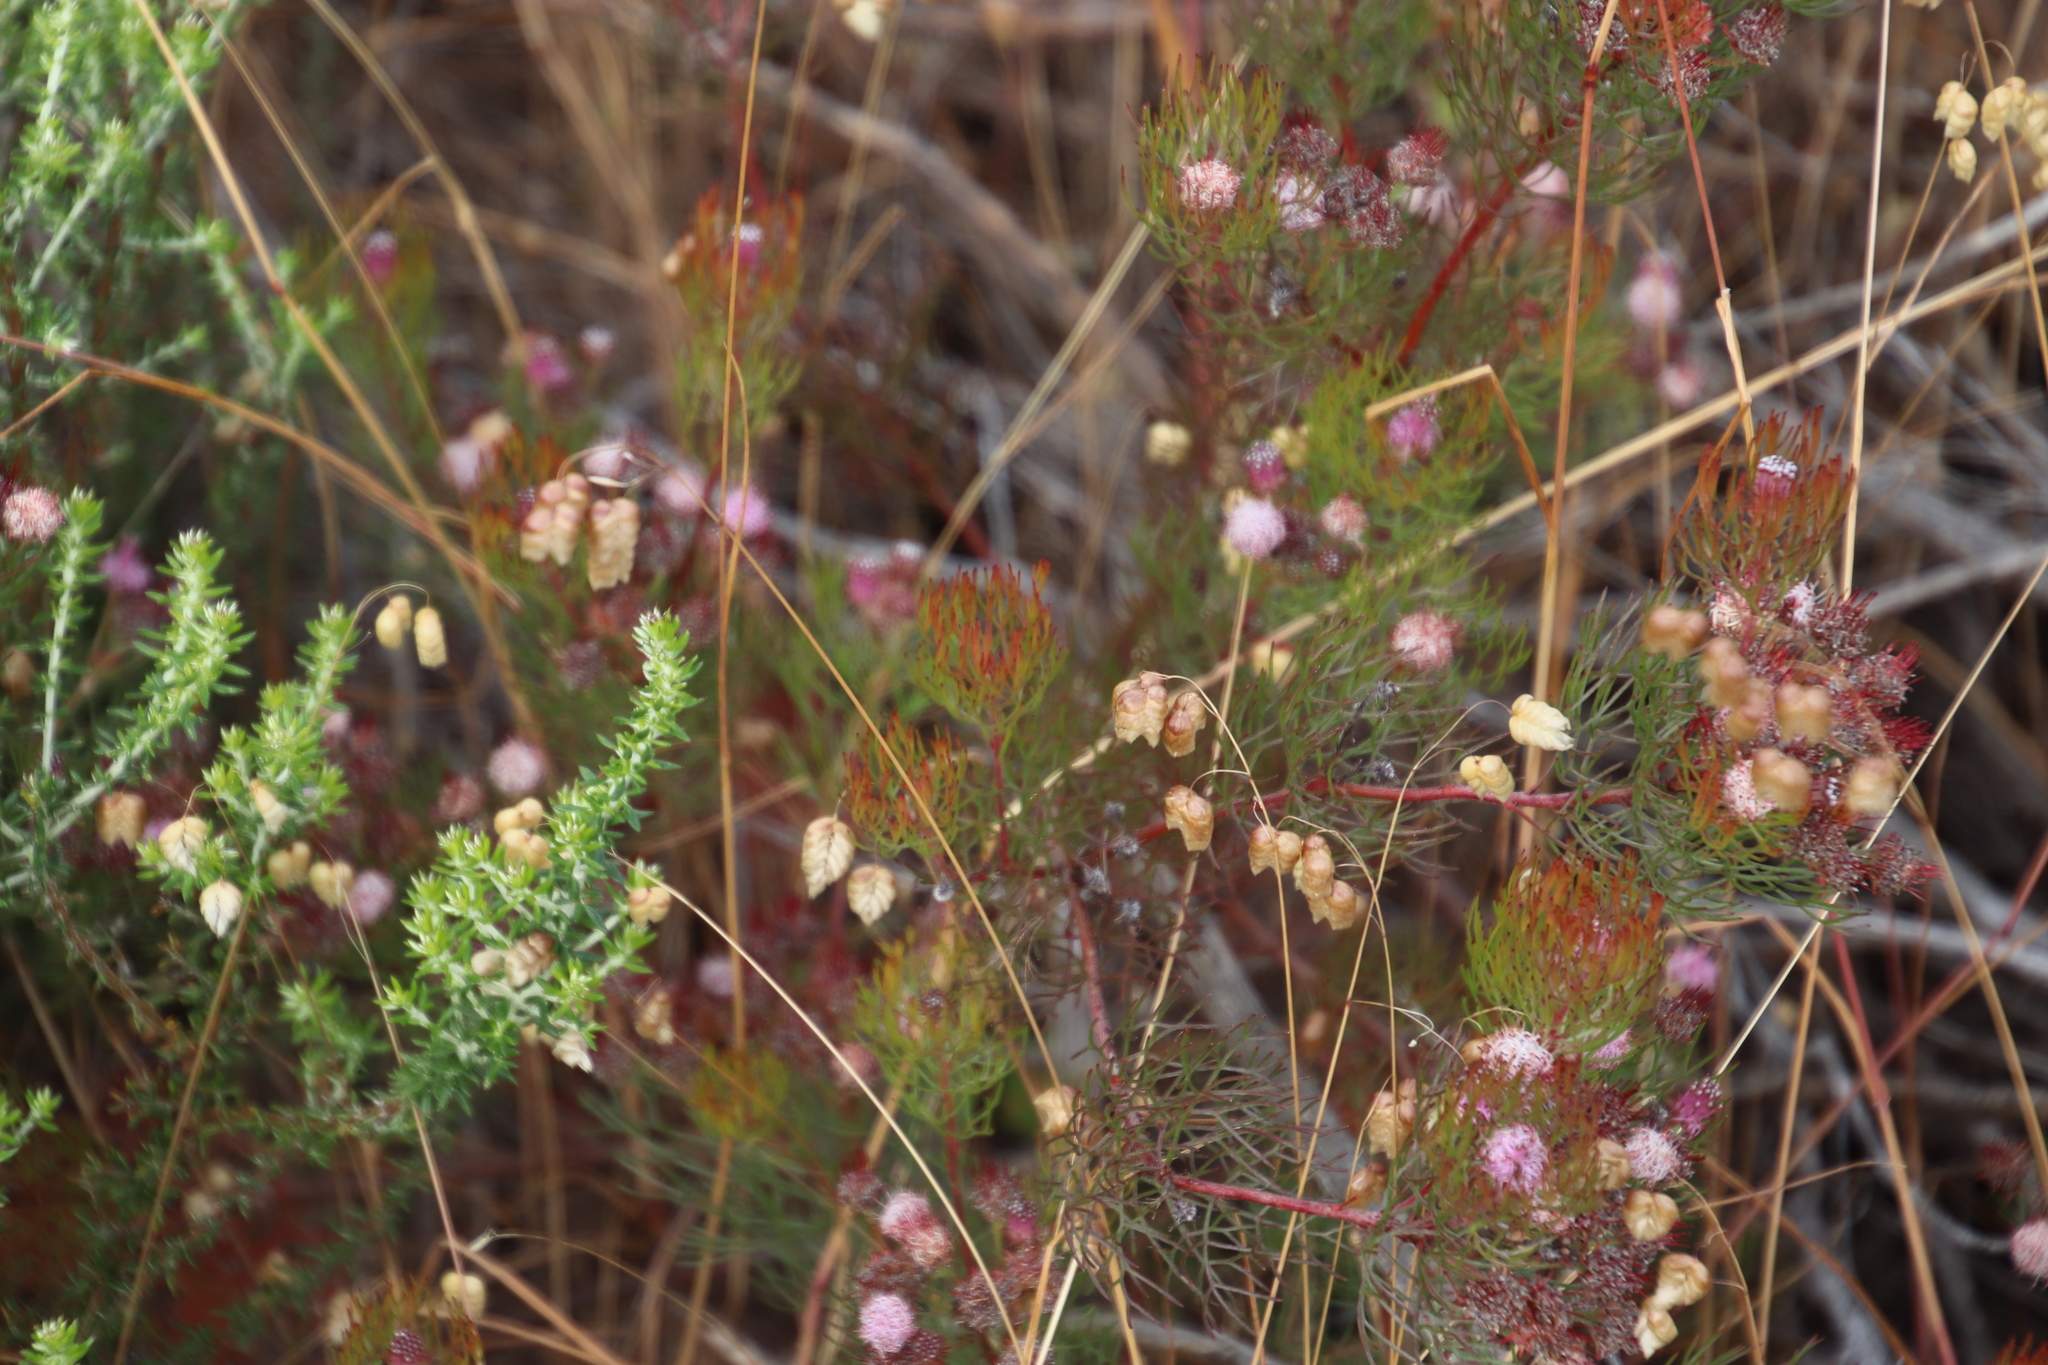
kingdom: Plantae
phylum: Tracheophyta
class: Magnoliopsida
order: Proteales
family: Proteaceae
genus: Serruria
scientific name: Serruria fasciflora
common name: Common pin spiderhead
